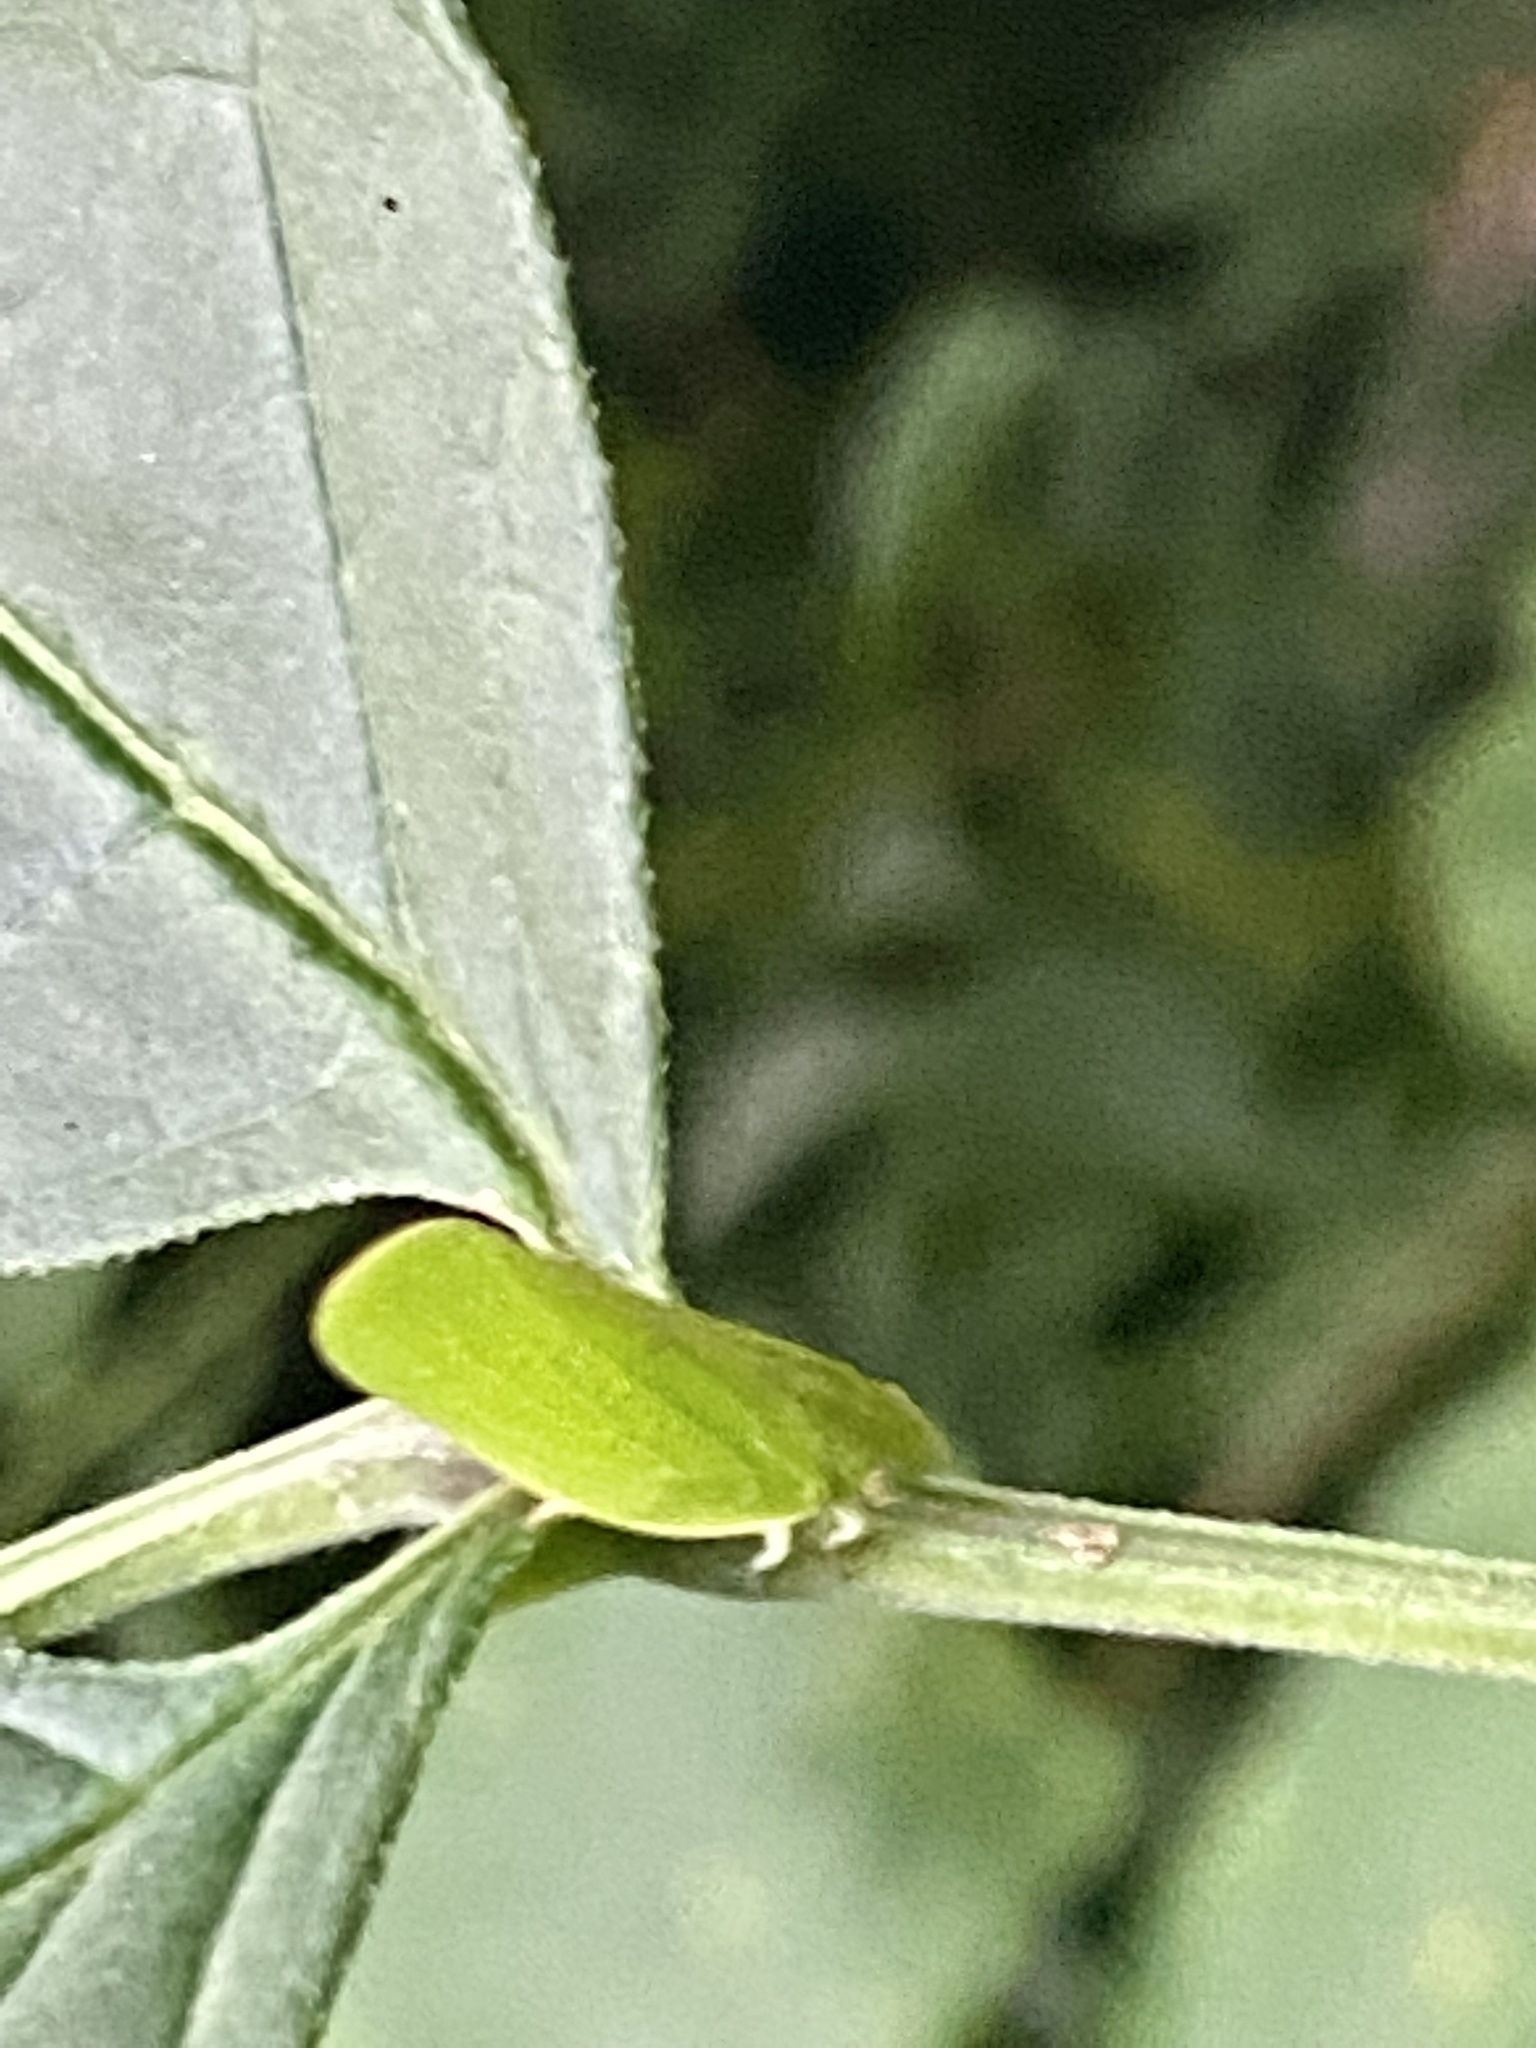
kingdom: Animalia
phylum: Arthropoda
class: Insecta
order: Hemiptera
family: Acanaloniidae
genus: Acanalonia
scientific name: Acanalonia conica
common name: Green cone-headed planthopper
